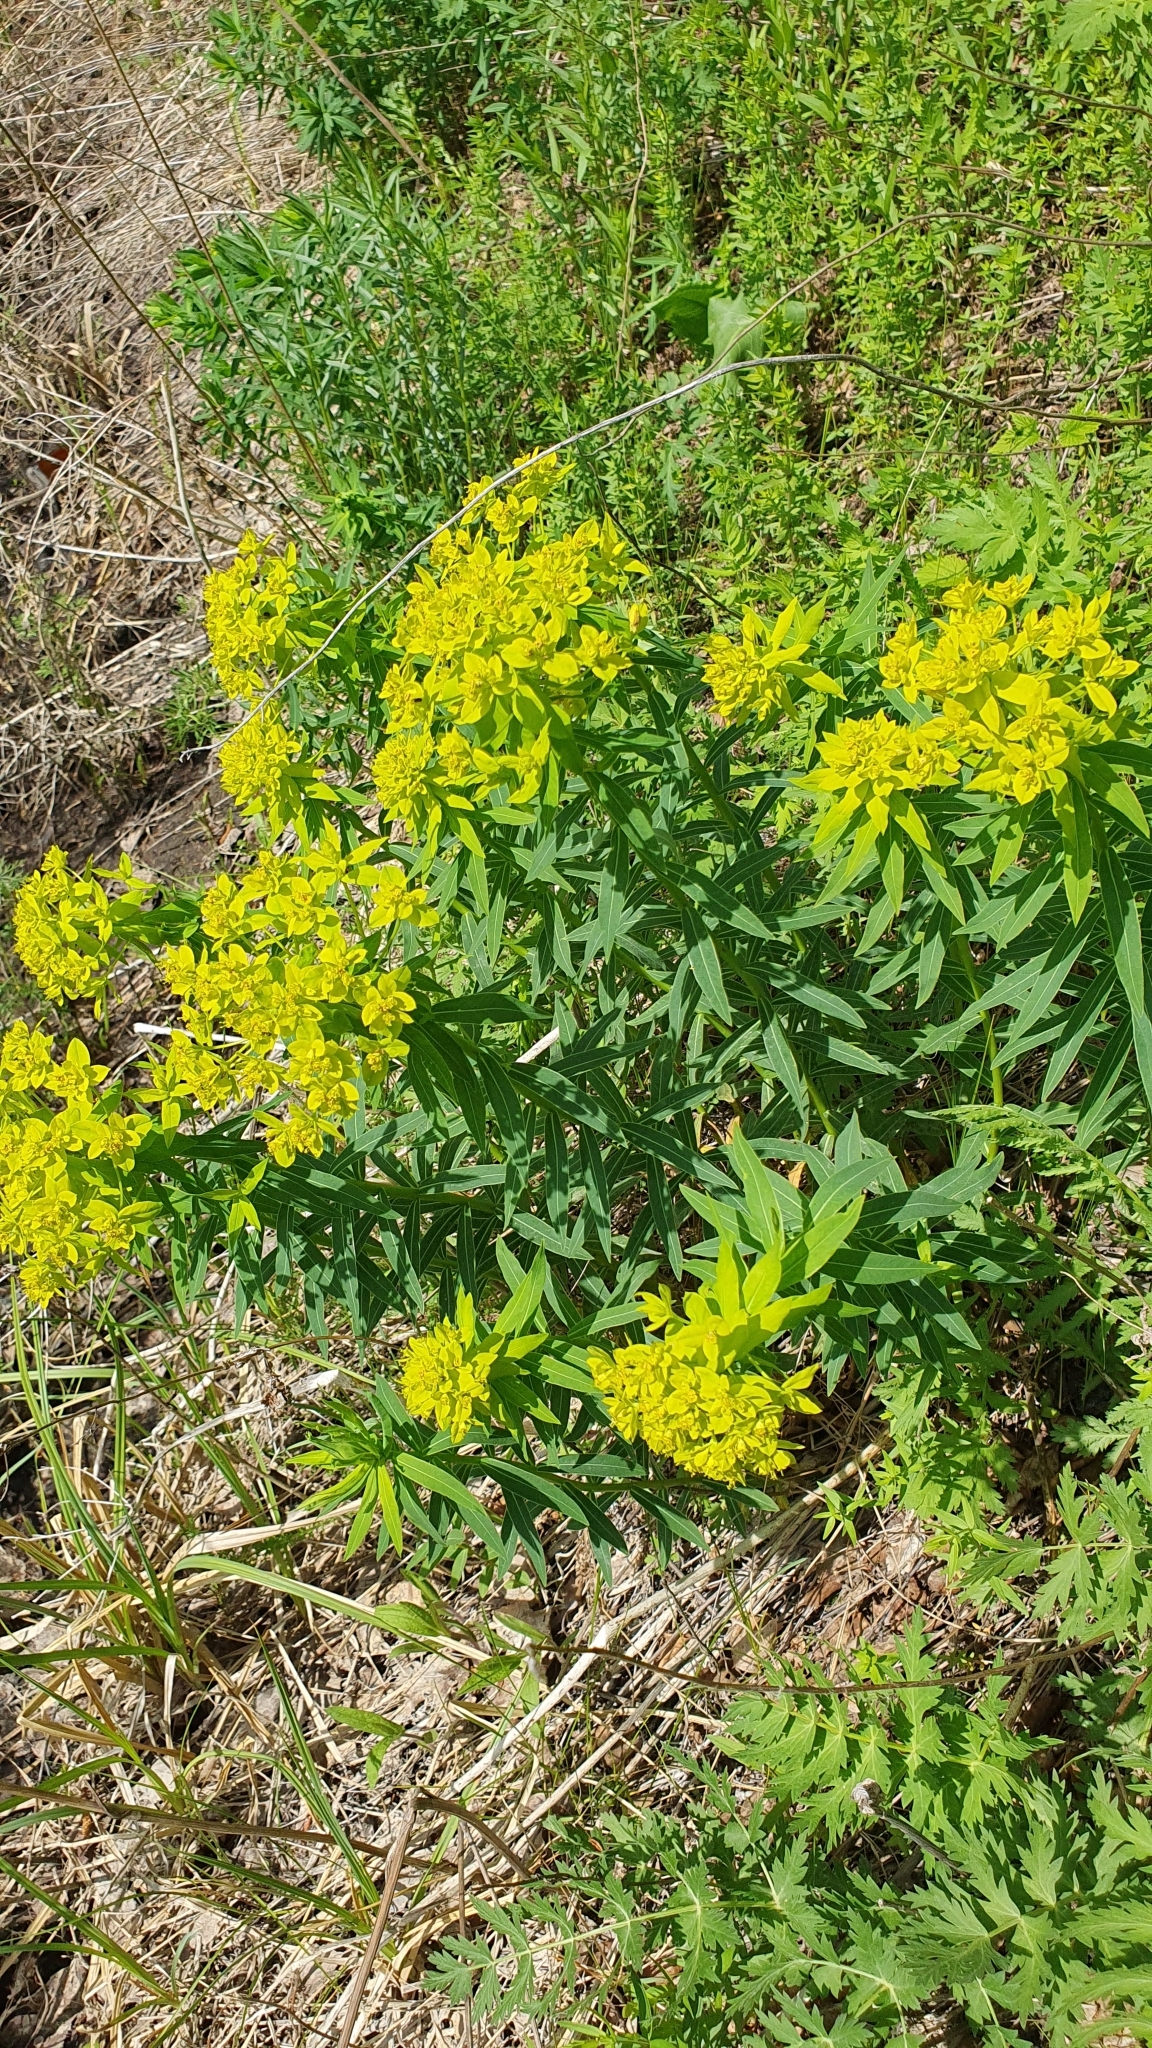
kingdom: Plantae
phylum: Tracheophyta
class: Magnoliopsida
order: Malpighiales
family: Euphorbiaceae
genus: Euphorbia
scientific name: Euphorbia palustris
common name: Marsh spurge
